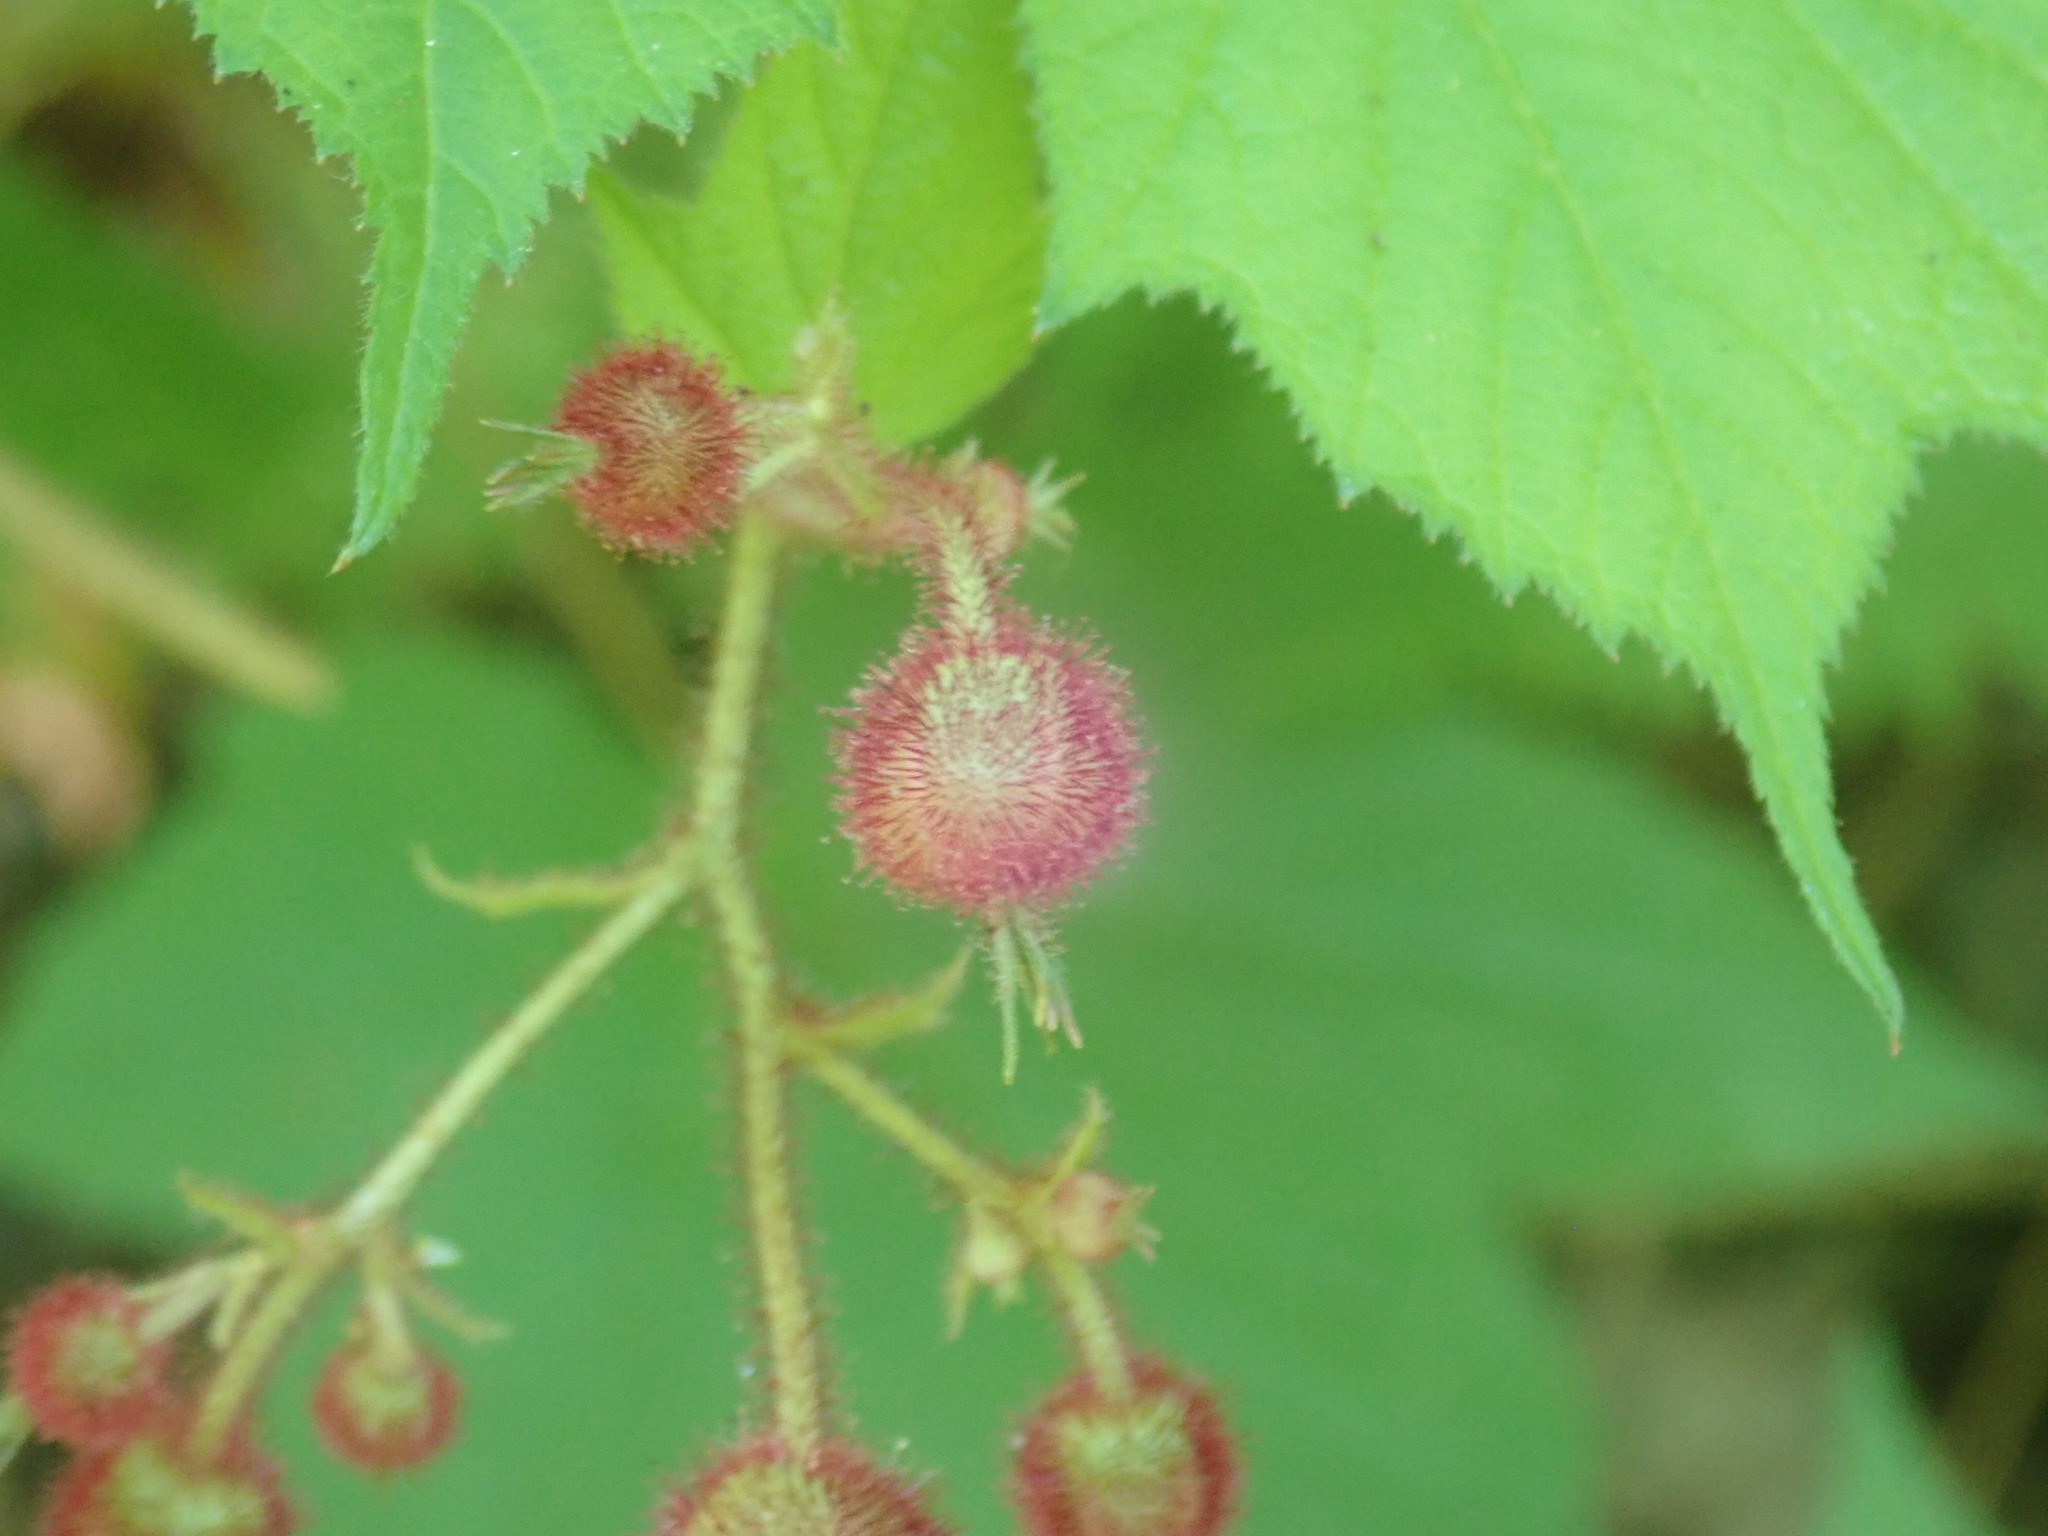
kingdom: Plantae
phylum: Tracheophyta
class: Magnoliopsida
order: Rosales
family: Rosaceae
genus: Rubus
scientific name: Rubus odoratus
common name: Purple-flowered raspberry
